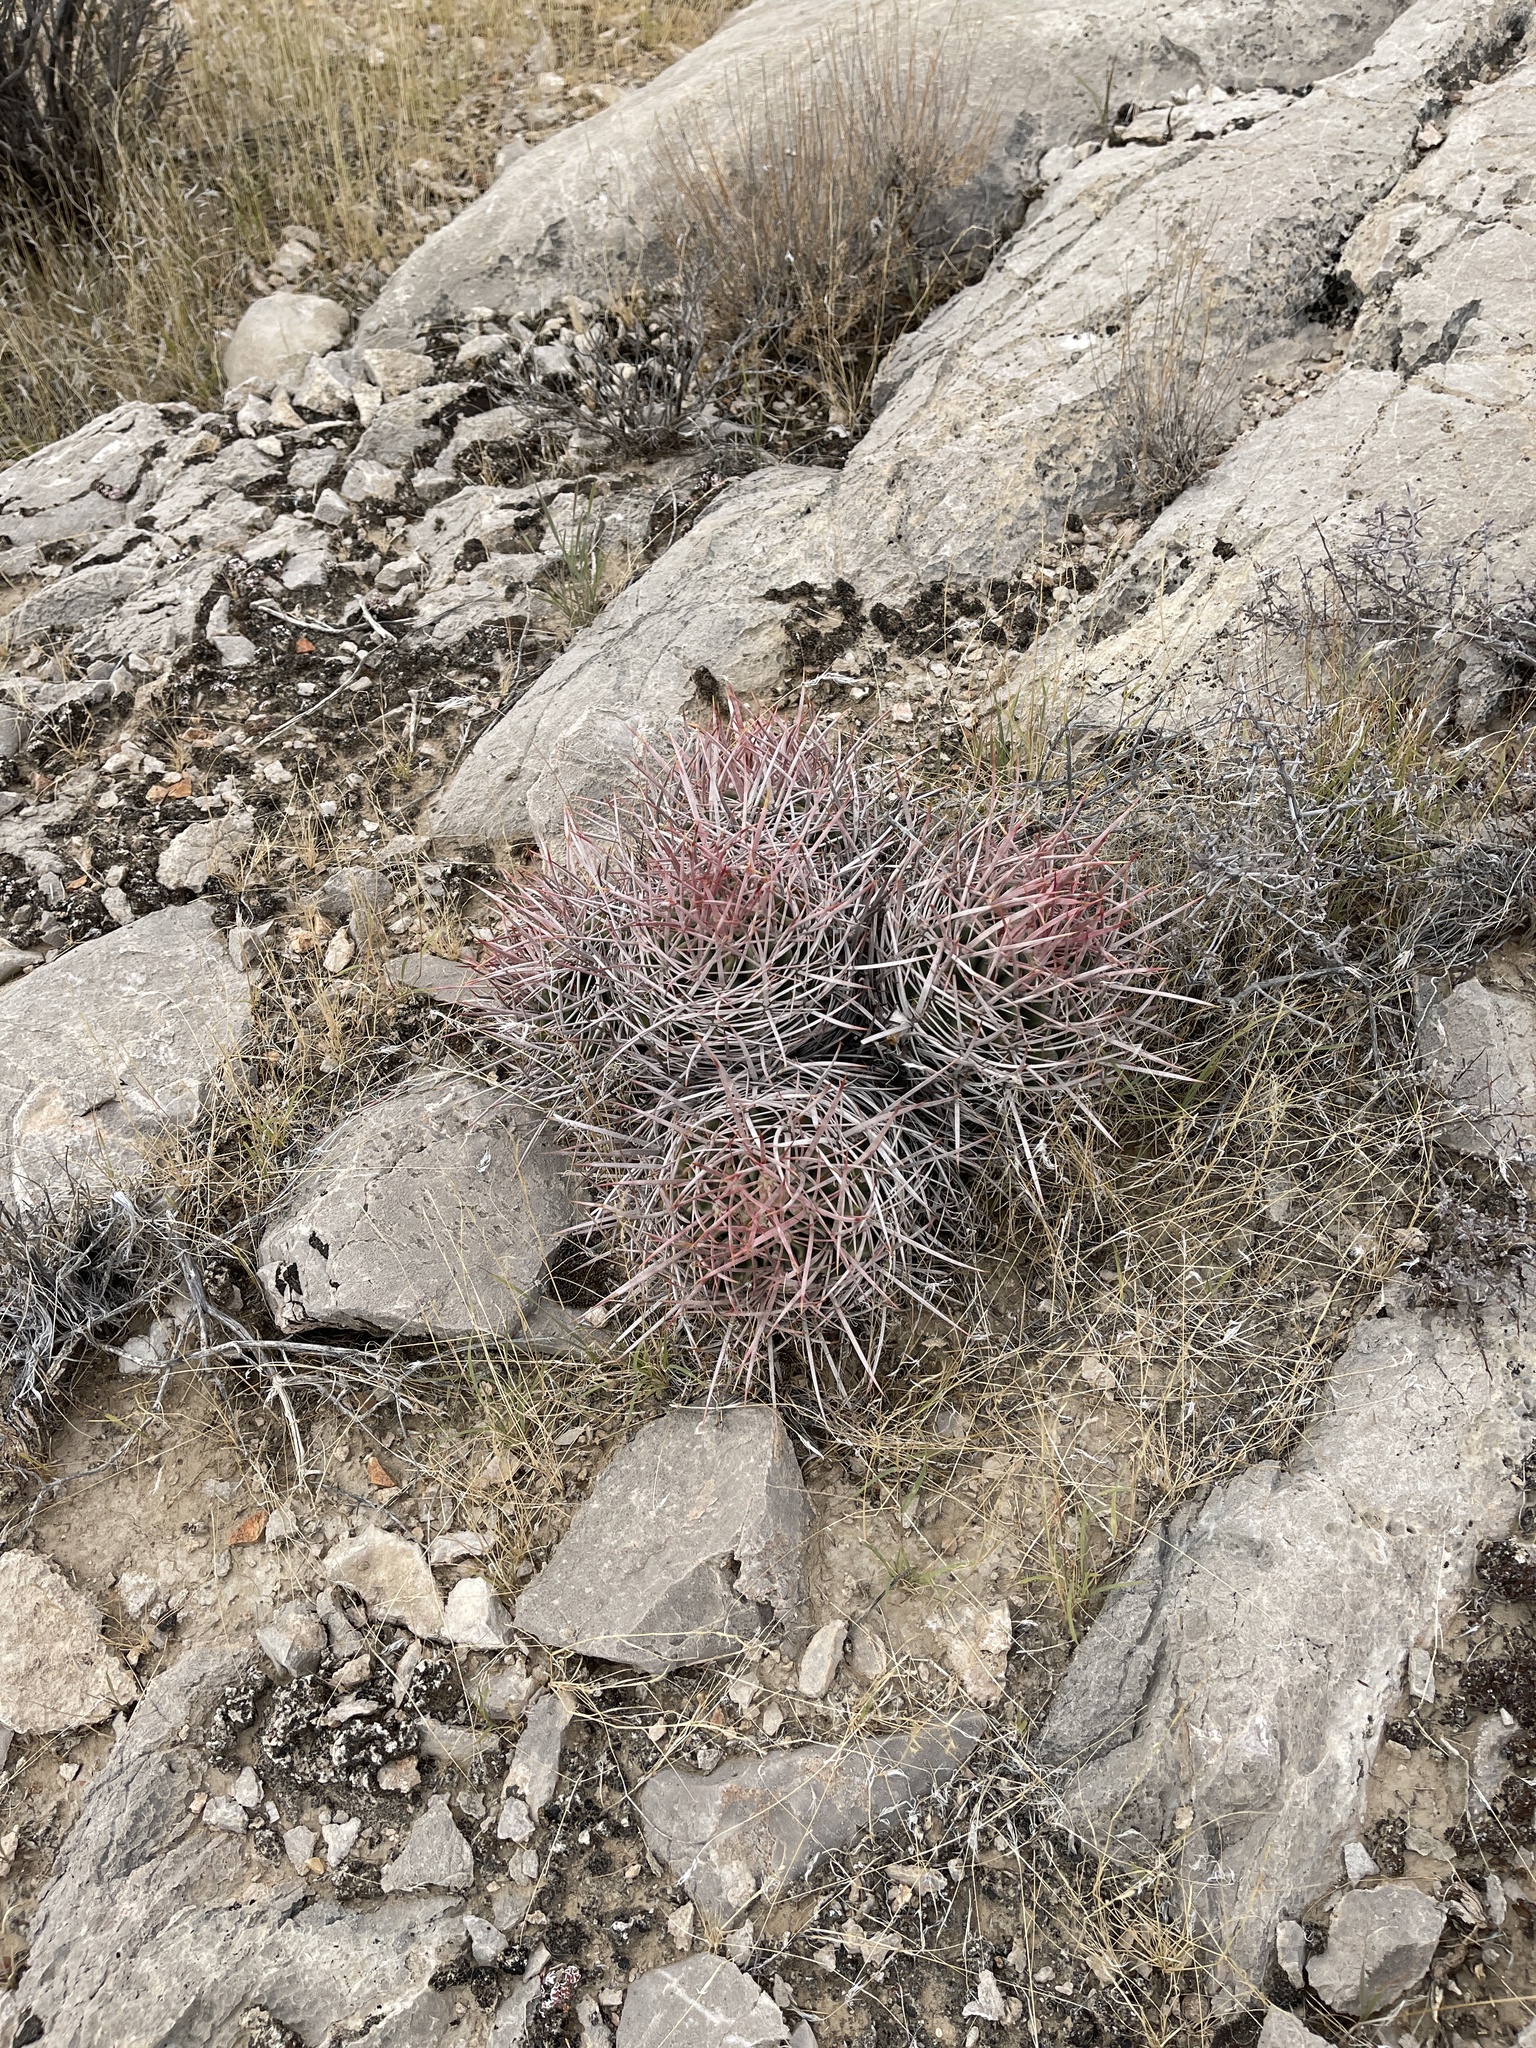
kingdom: Plantae
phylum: Tracheophyta
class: Magnoliopsida
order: Caryophyllales
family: Cactaceae
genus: Echinocactus
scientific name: Echinocactus polycephalus
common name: Cottontop cactus
